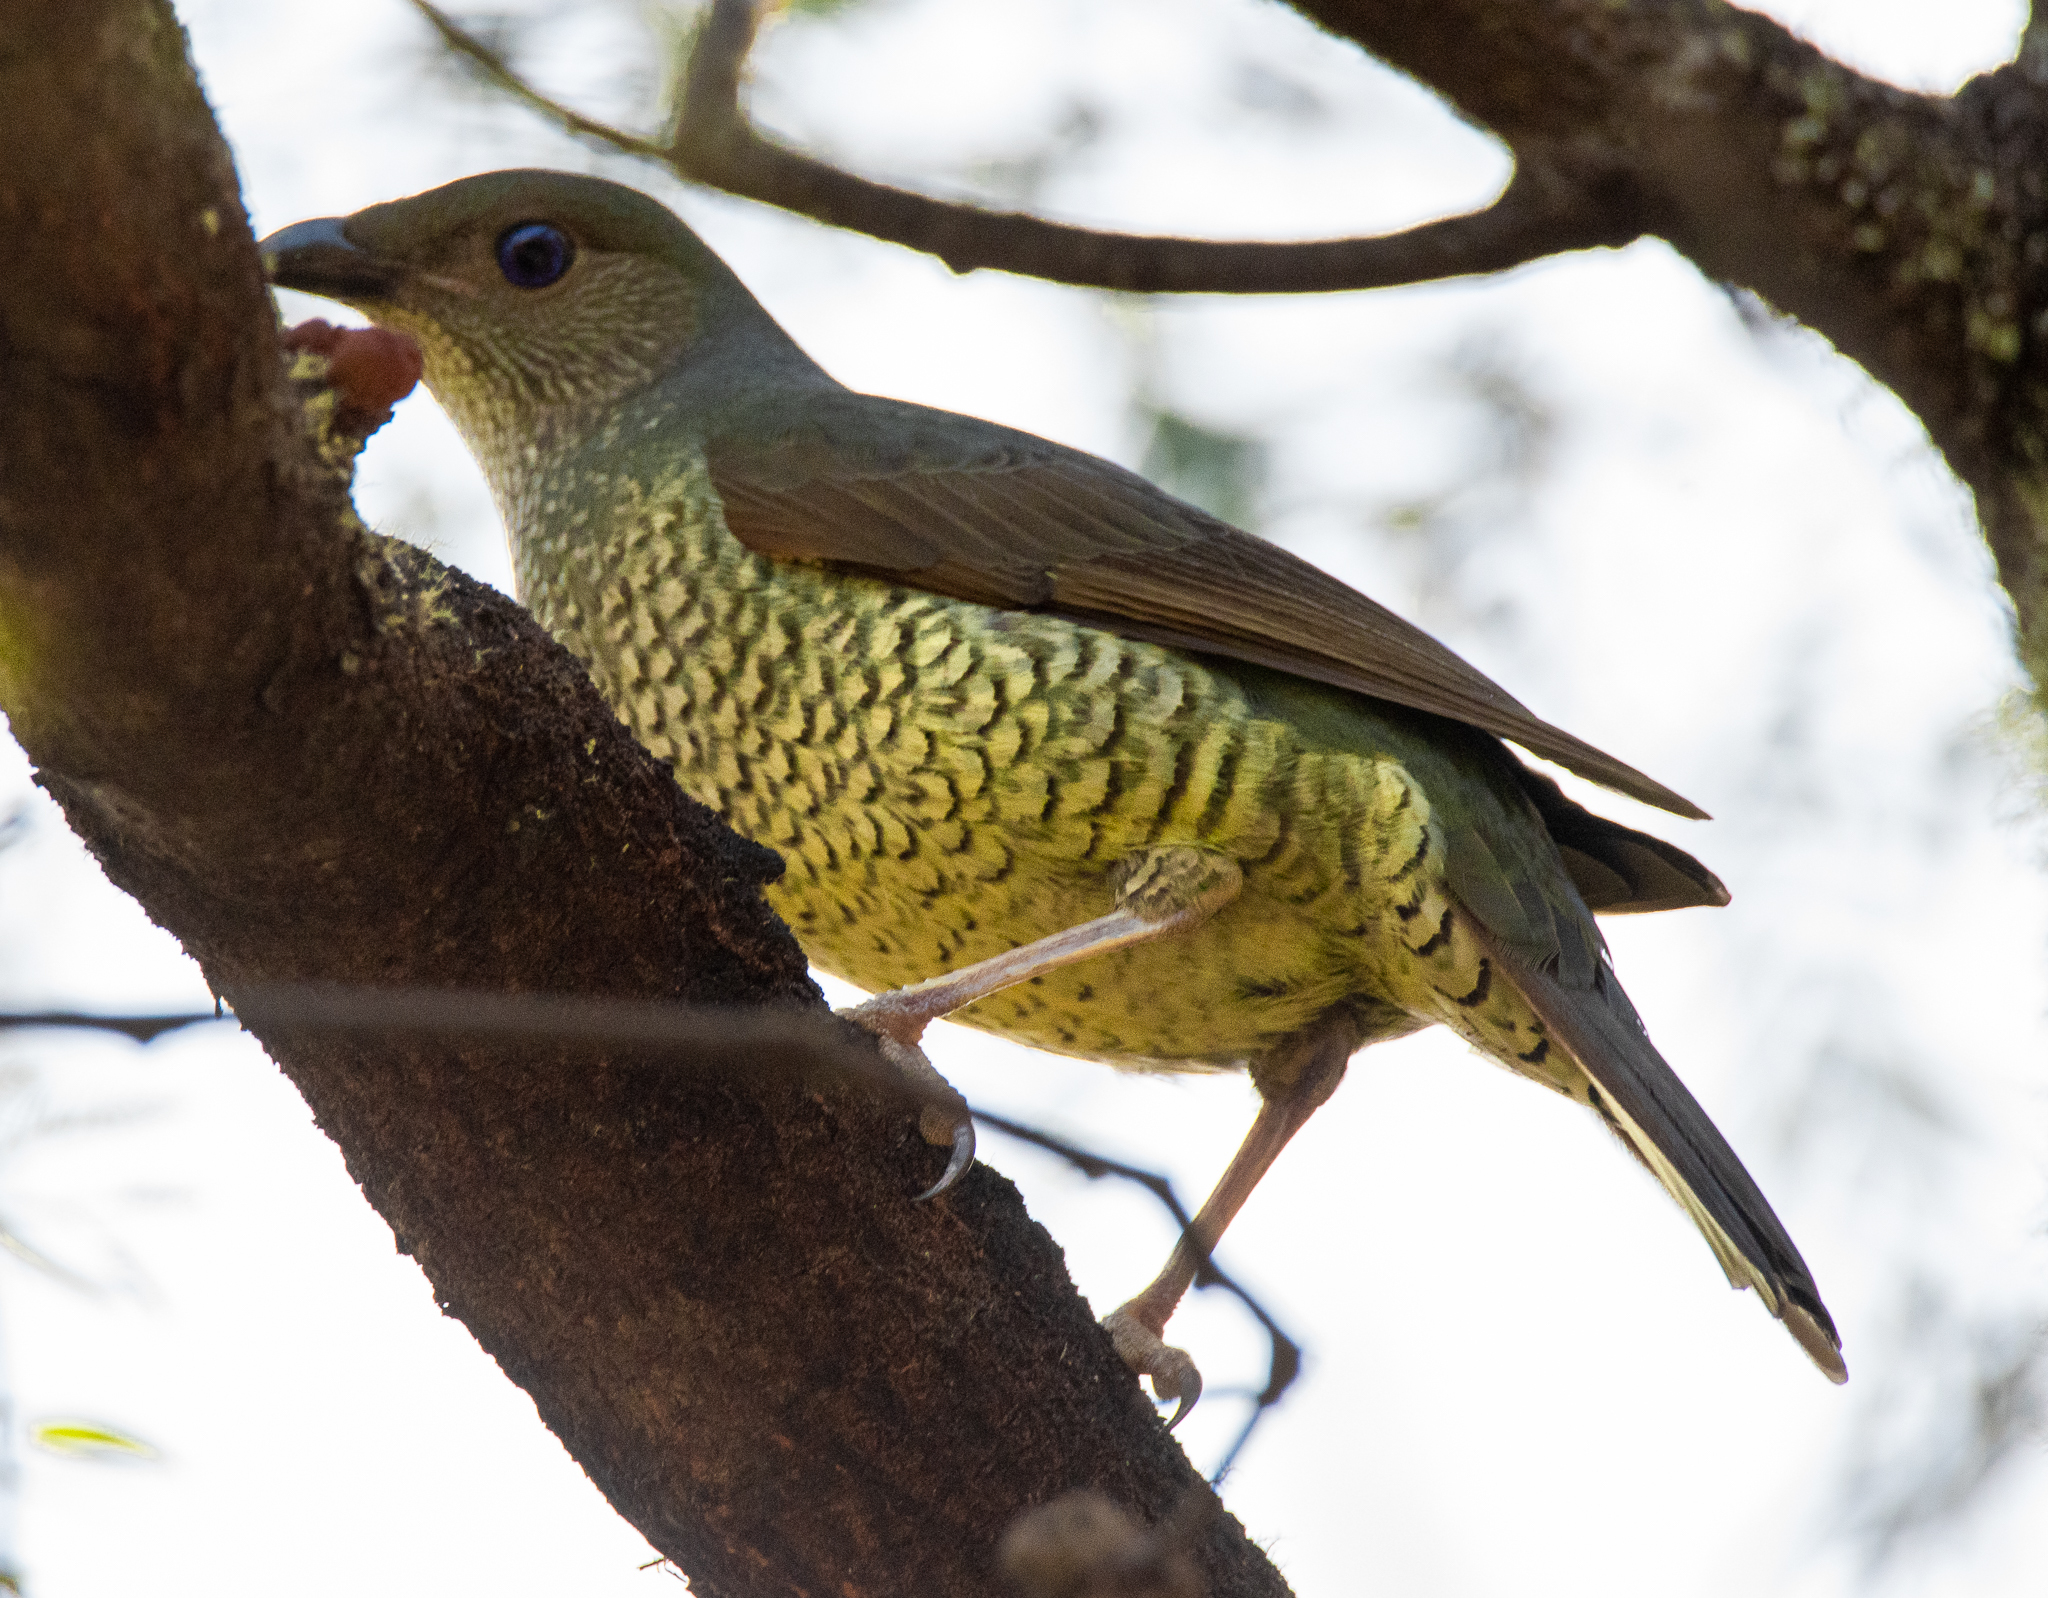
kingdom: Animalia
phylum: Chordata
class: Aves
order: Passeriformes
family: Ptilonorhynchidae
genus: Ptilonorhynchus
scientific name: Ptilonorhynchus violaceus
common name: Satin bowerbird
